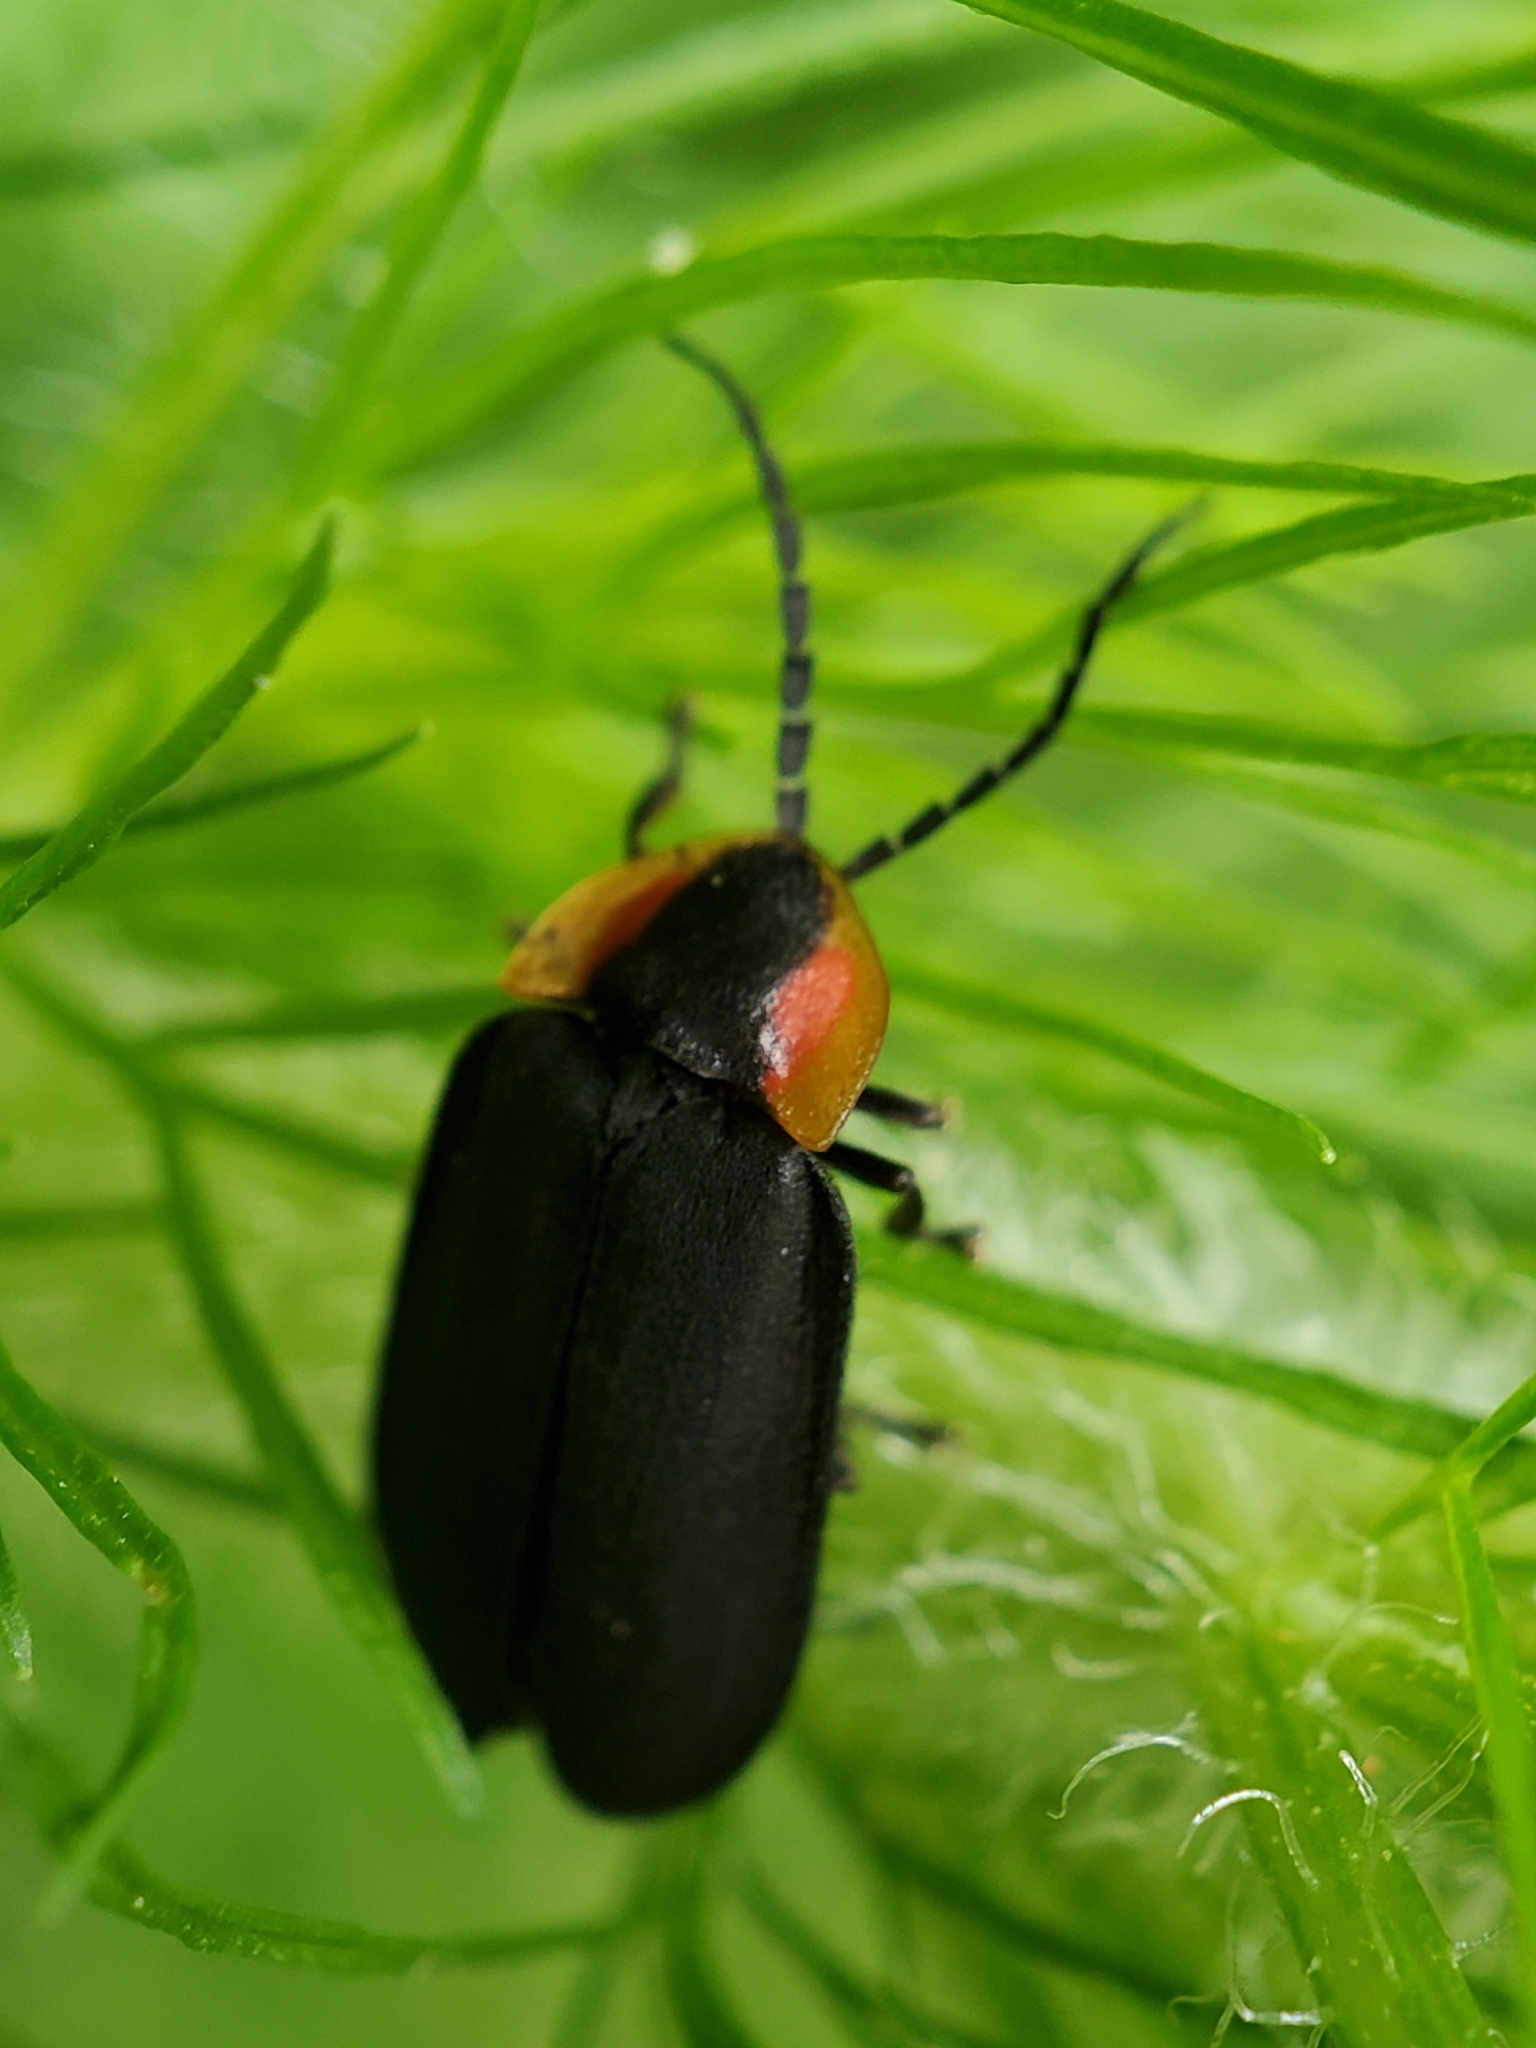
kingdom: Animalia
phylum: Arthropoda
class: Insecta
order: Coleoptera
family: Lampyridae
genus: Lucidota
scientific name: Lucidota atra
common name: Black firefly
